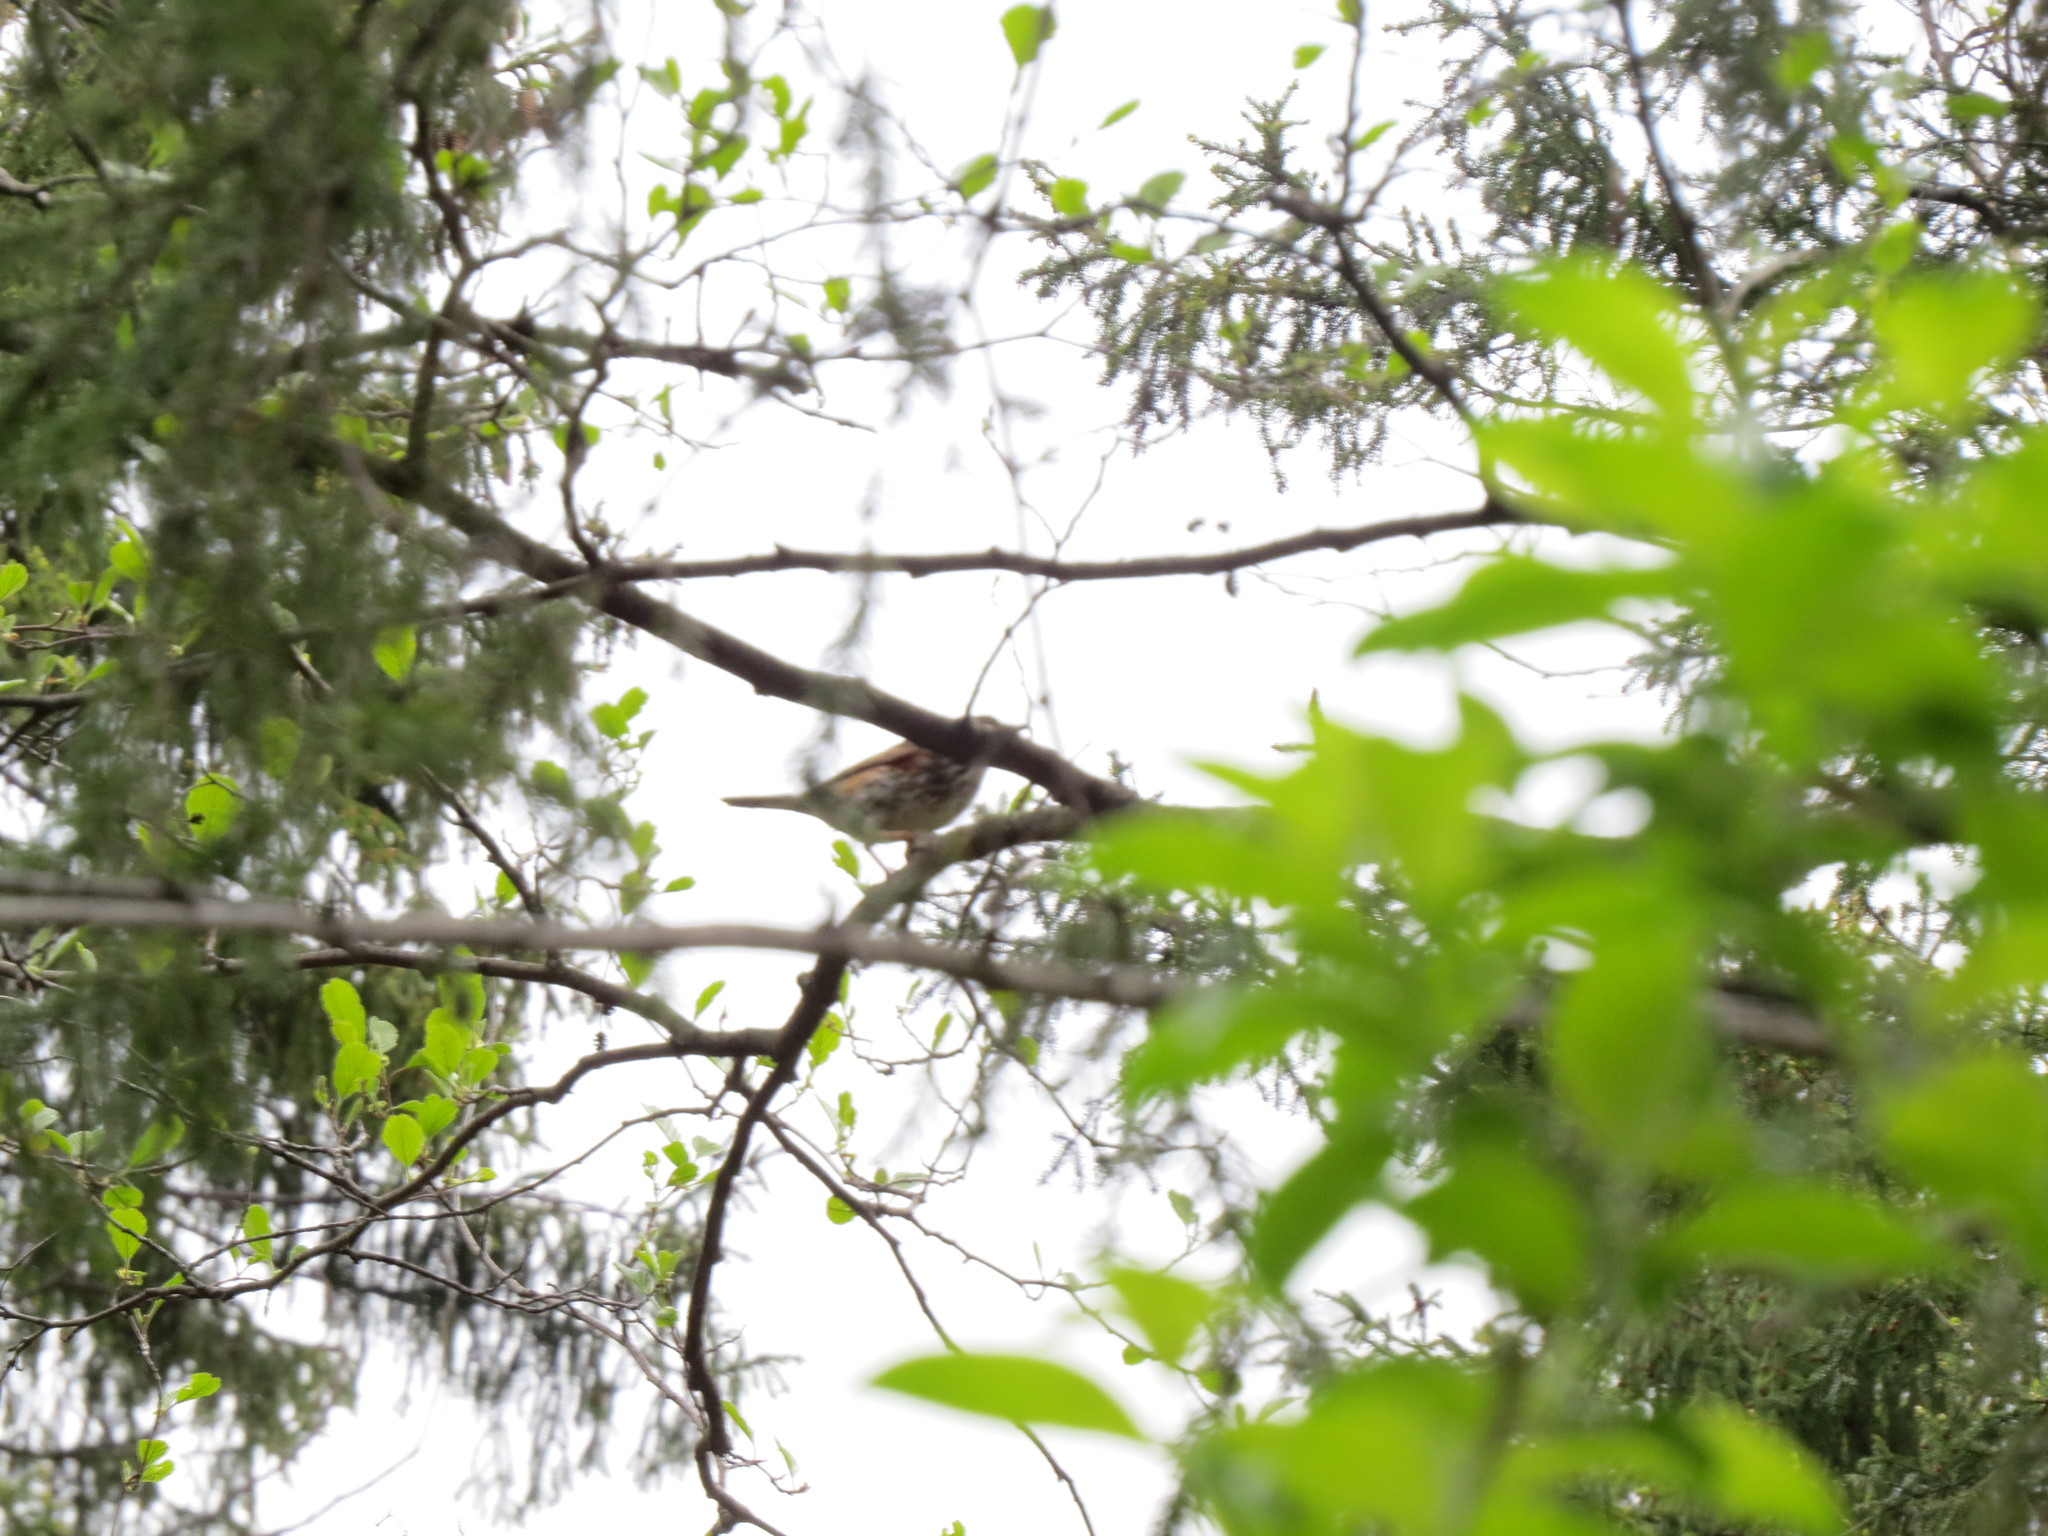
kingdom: Animalia
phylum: Chordata
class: Aves
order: Passeriformes
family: Turdidae
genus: Turdus
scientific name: Turdus iliacus
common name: Redwing
